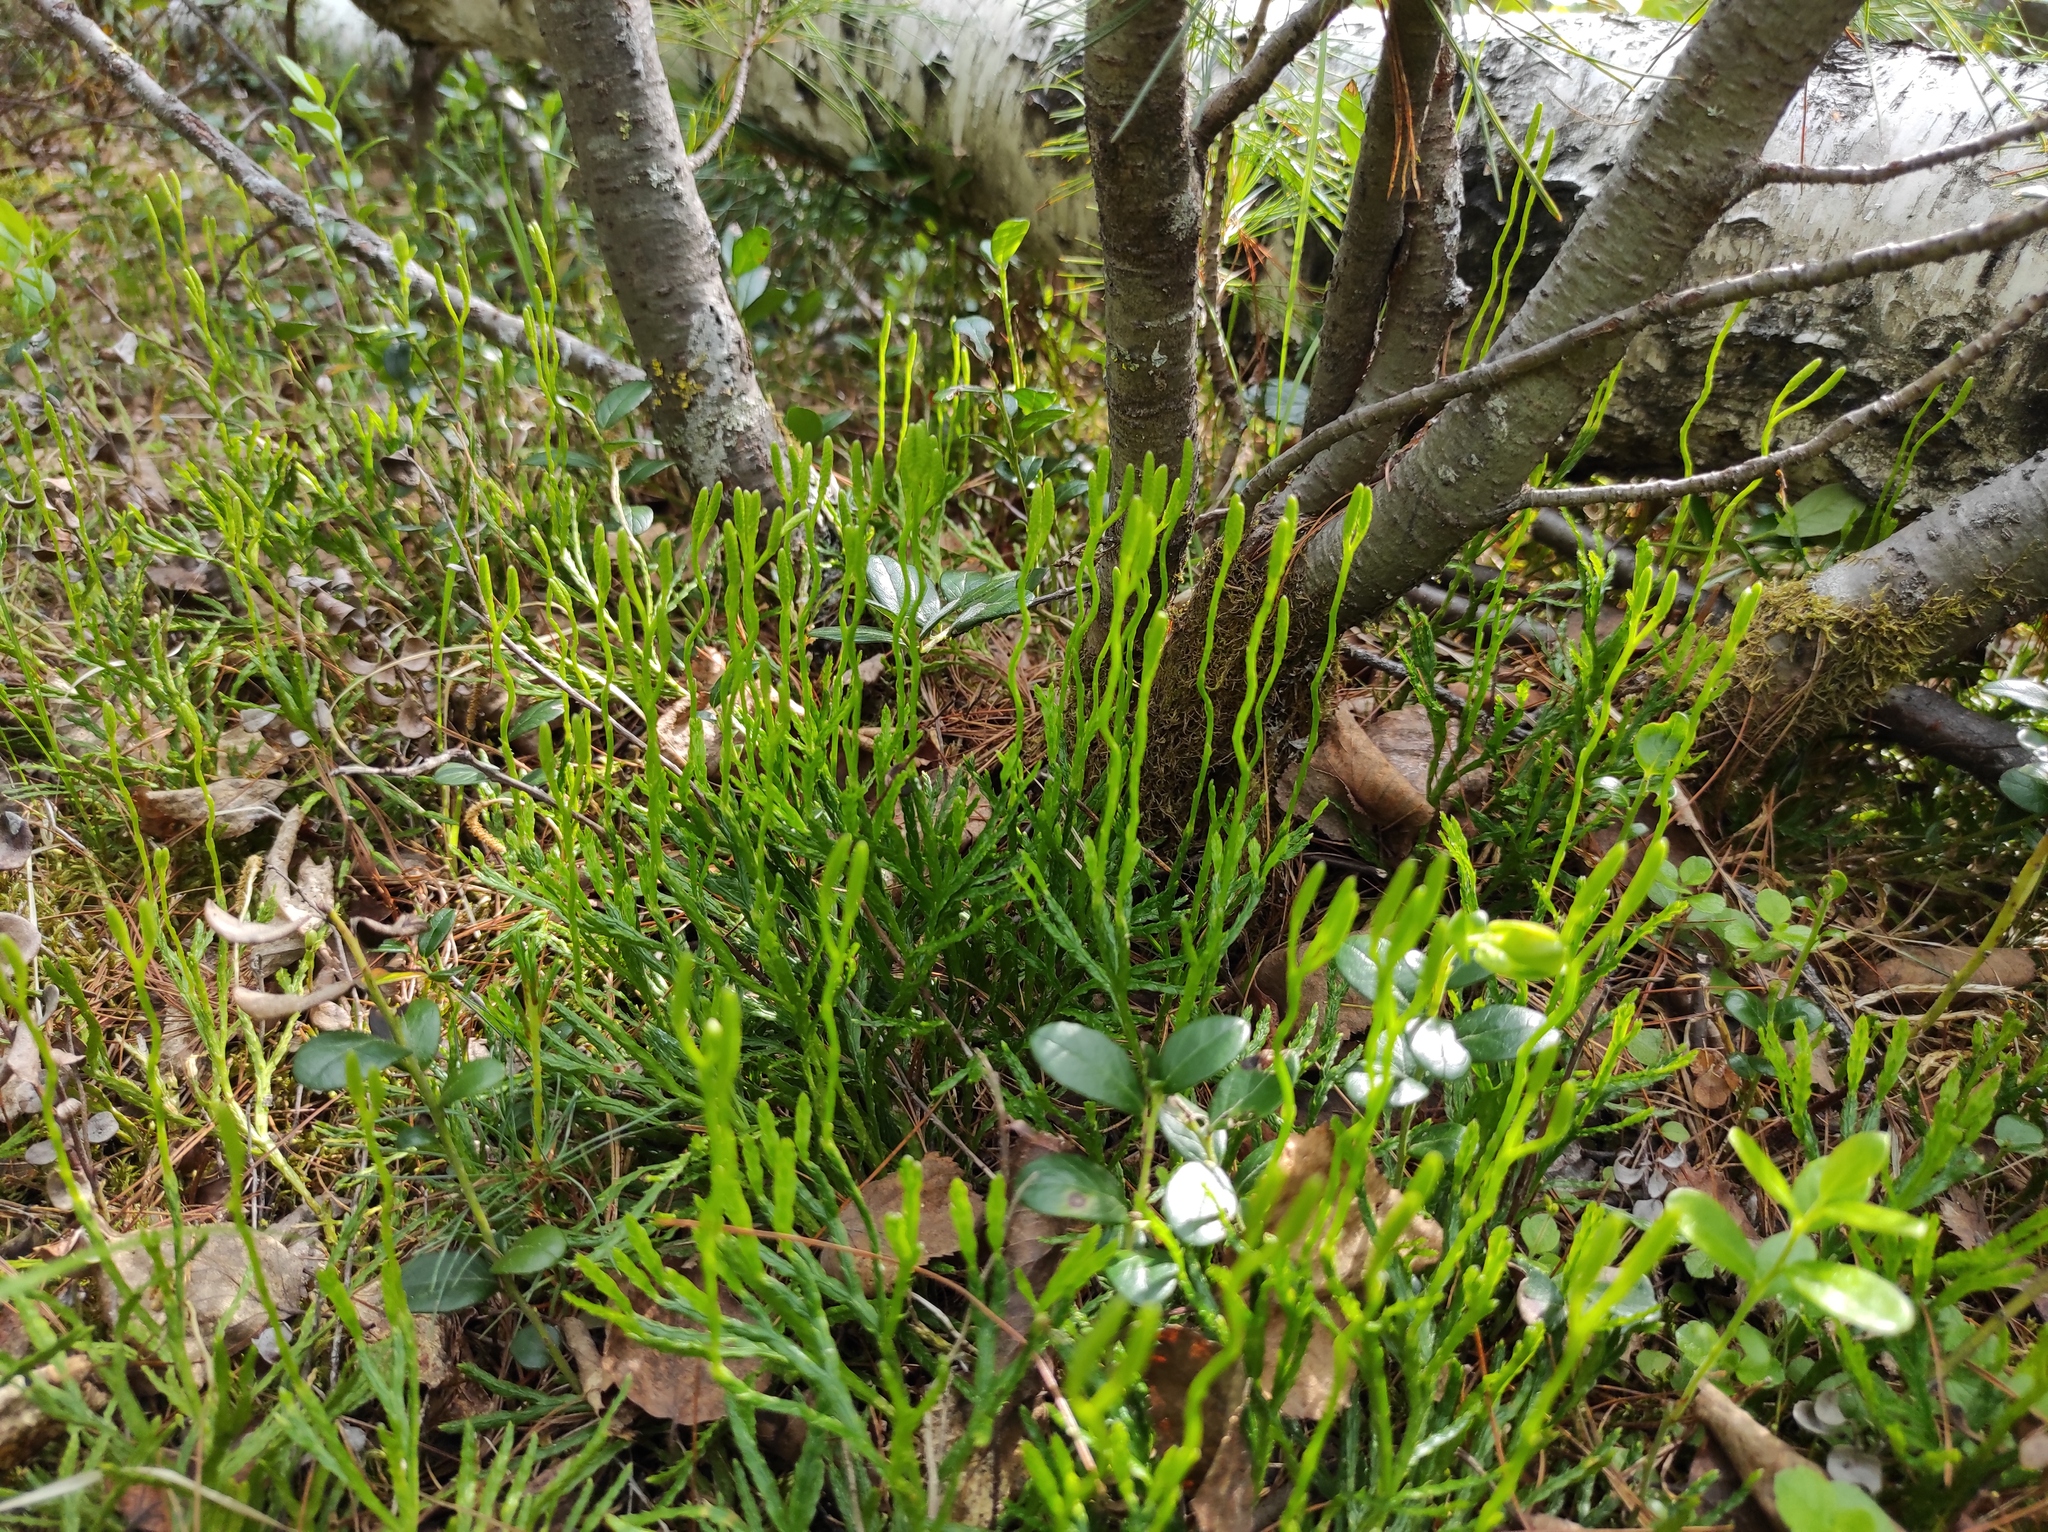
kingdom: Plantae
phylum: Tracheophyta
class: Lycopodiopsida
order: Lycopodiales
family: Lycopodiaceae
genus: Diphasiastrum
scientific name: Diphasiastrum complanatum
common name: Northern running-pine
